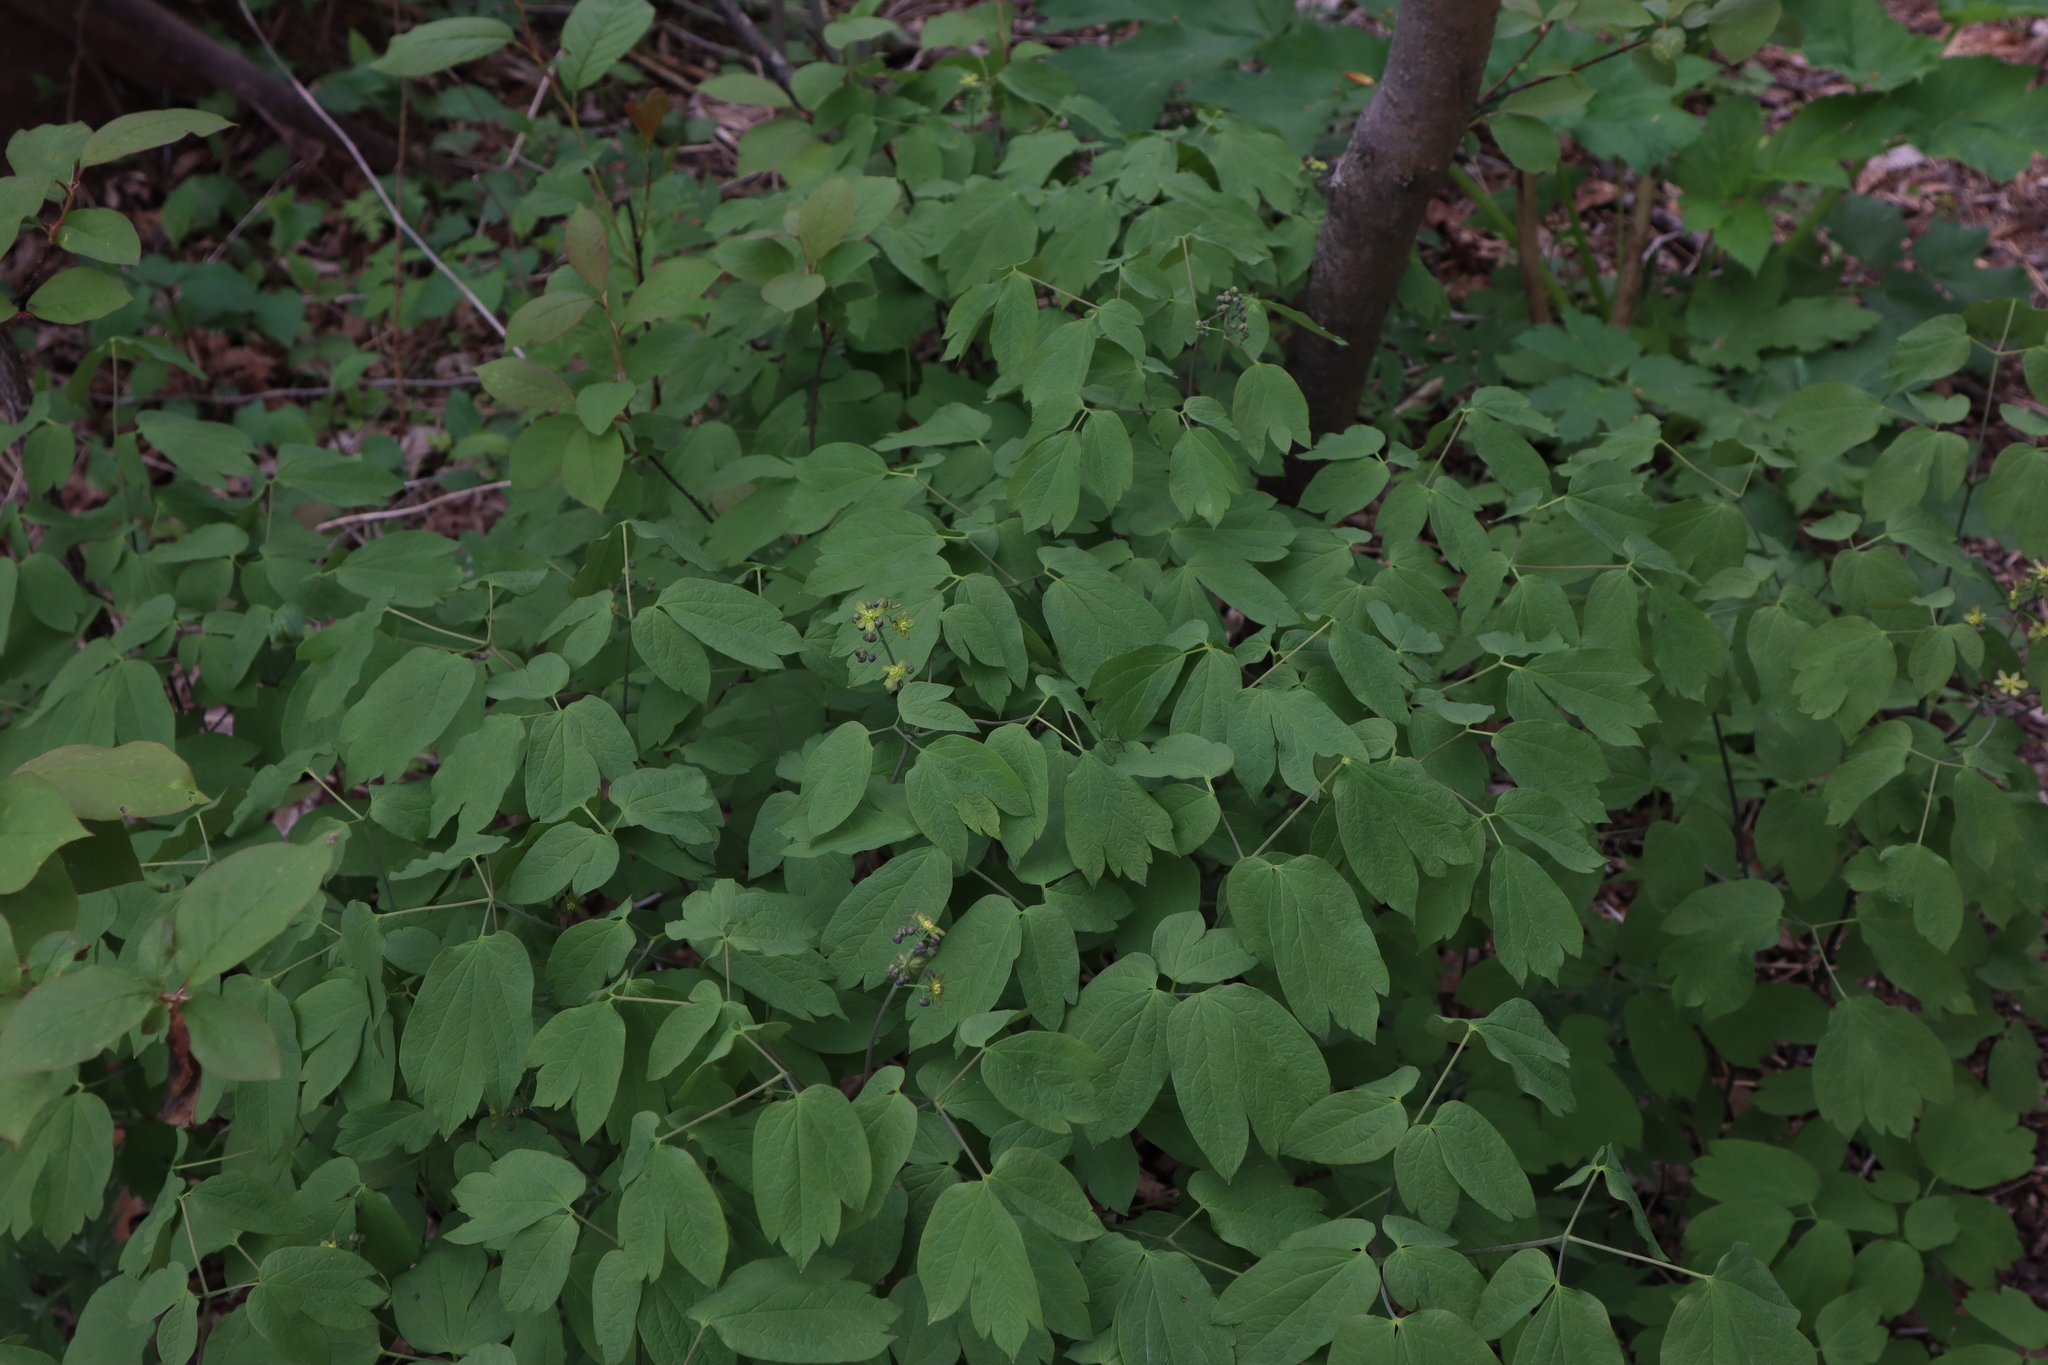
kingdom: Plantae
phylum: Tracheophyta
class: Magnoliopsida
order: Ranunculales
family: Berberidaceae
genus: Caulophyllum
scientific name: Caulophyllum thalictroides
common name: Blue cohosh
